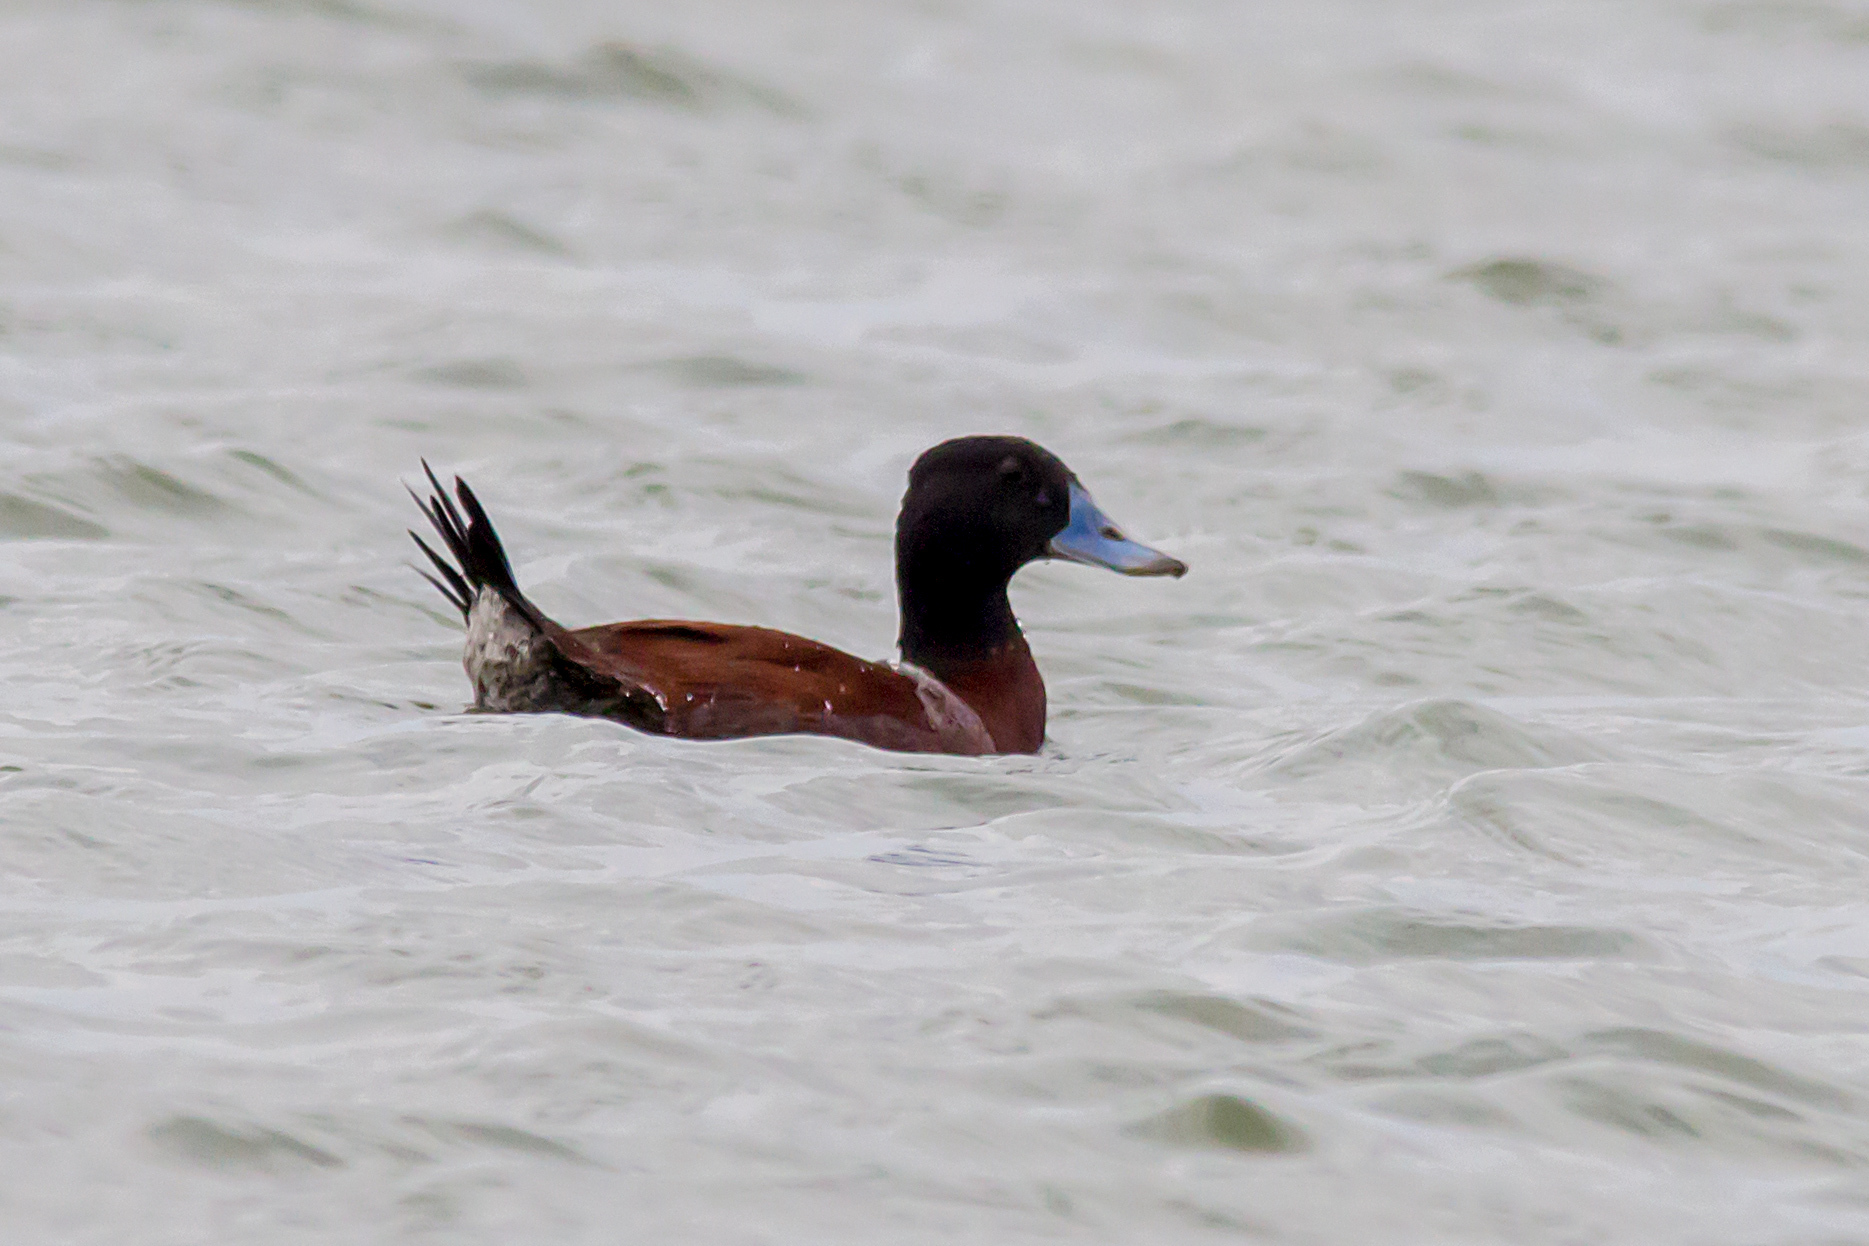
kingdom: Animalia
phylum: Chordata
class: Aves
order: Anseriformes
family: Anatidae
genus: Oxyura
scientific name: Oxyura australis
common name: Blue-billed duck
